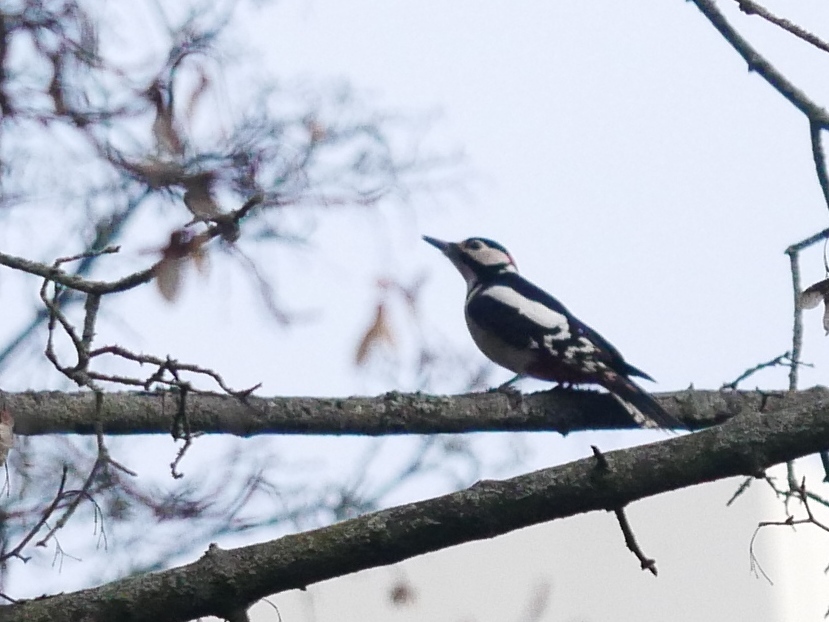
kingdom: Animalia
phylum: Chordata
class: Aves
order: Piciformes
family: Picidae
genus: Dendrocopos
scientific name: Dendrocopos major
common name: Great spotted woodpecker
